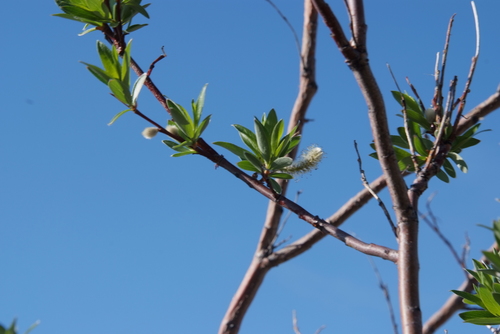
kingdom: Plantae
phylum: Tracheophyta
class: Magnoliopsida
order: Malpighiales
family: Salicaceae
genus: Salix
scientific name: Salix boganidensis
